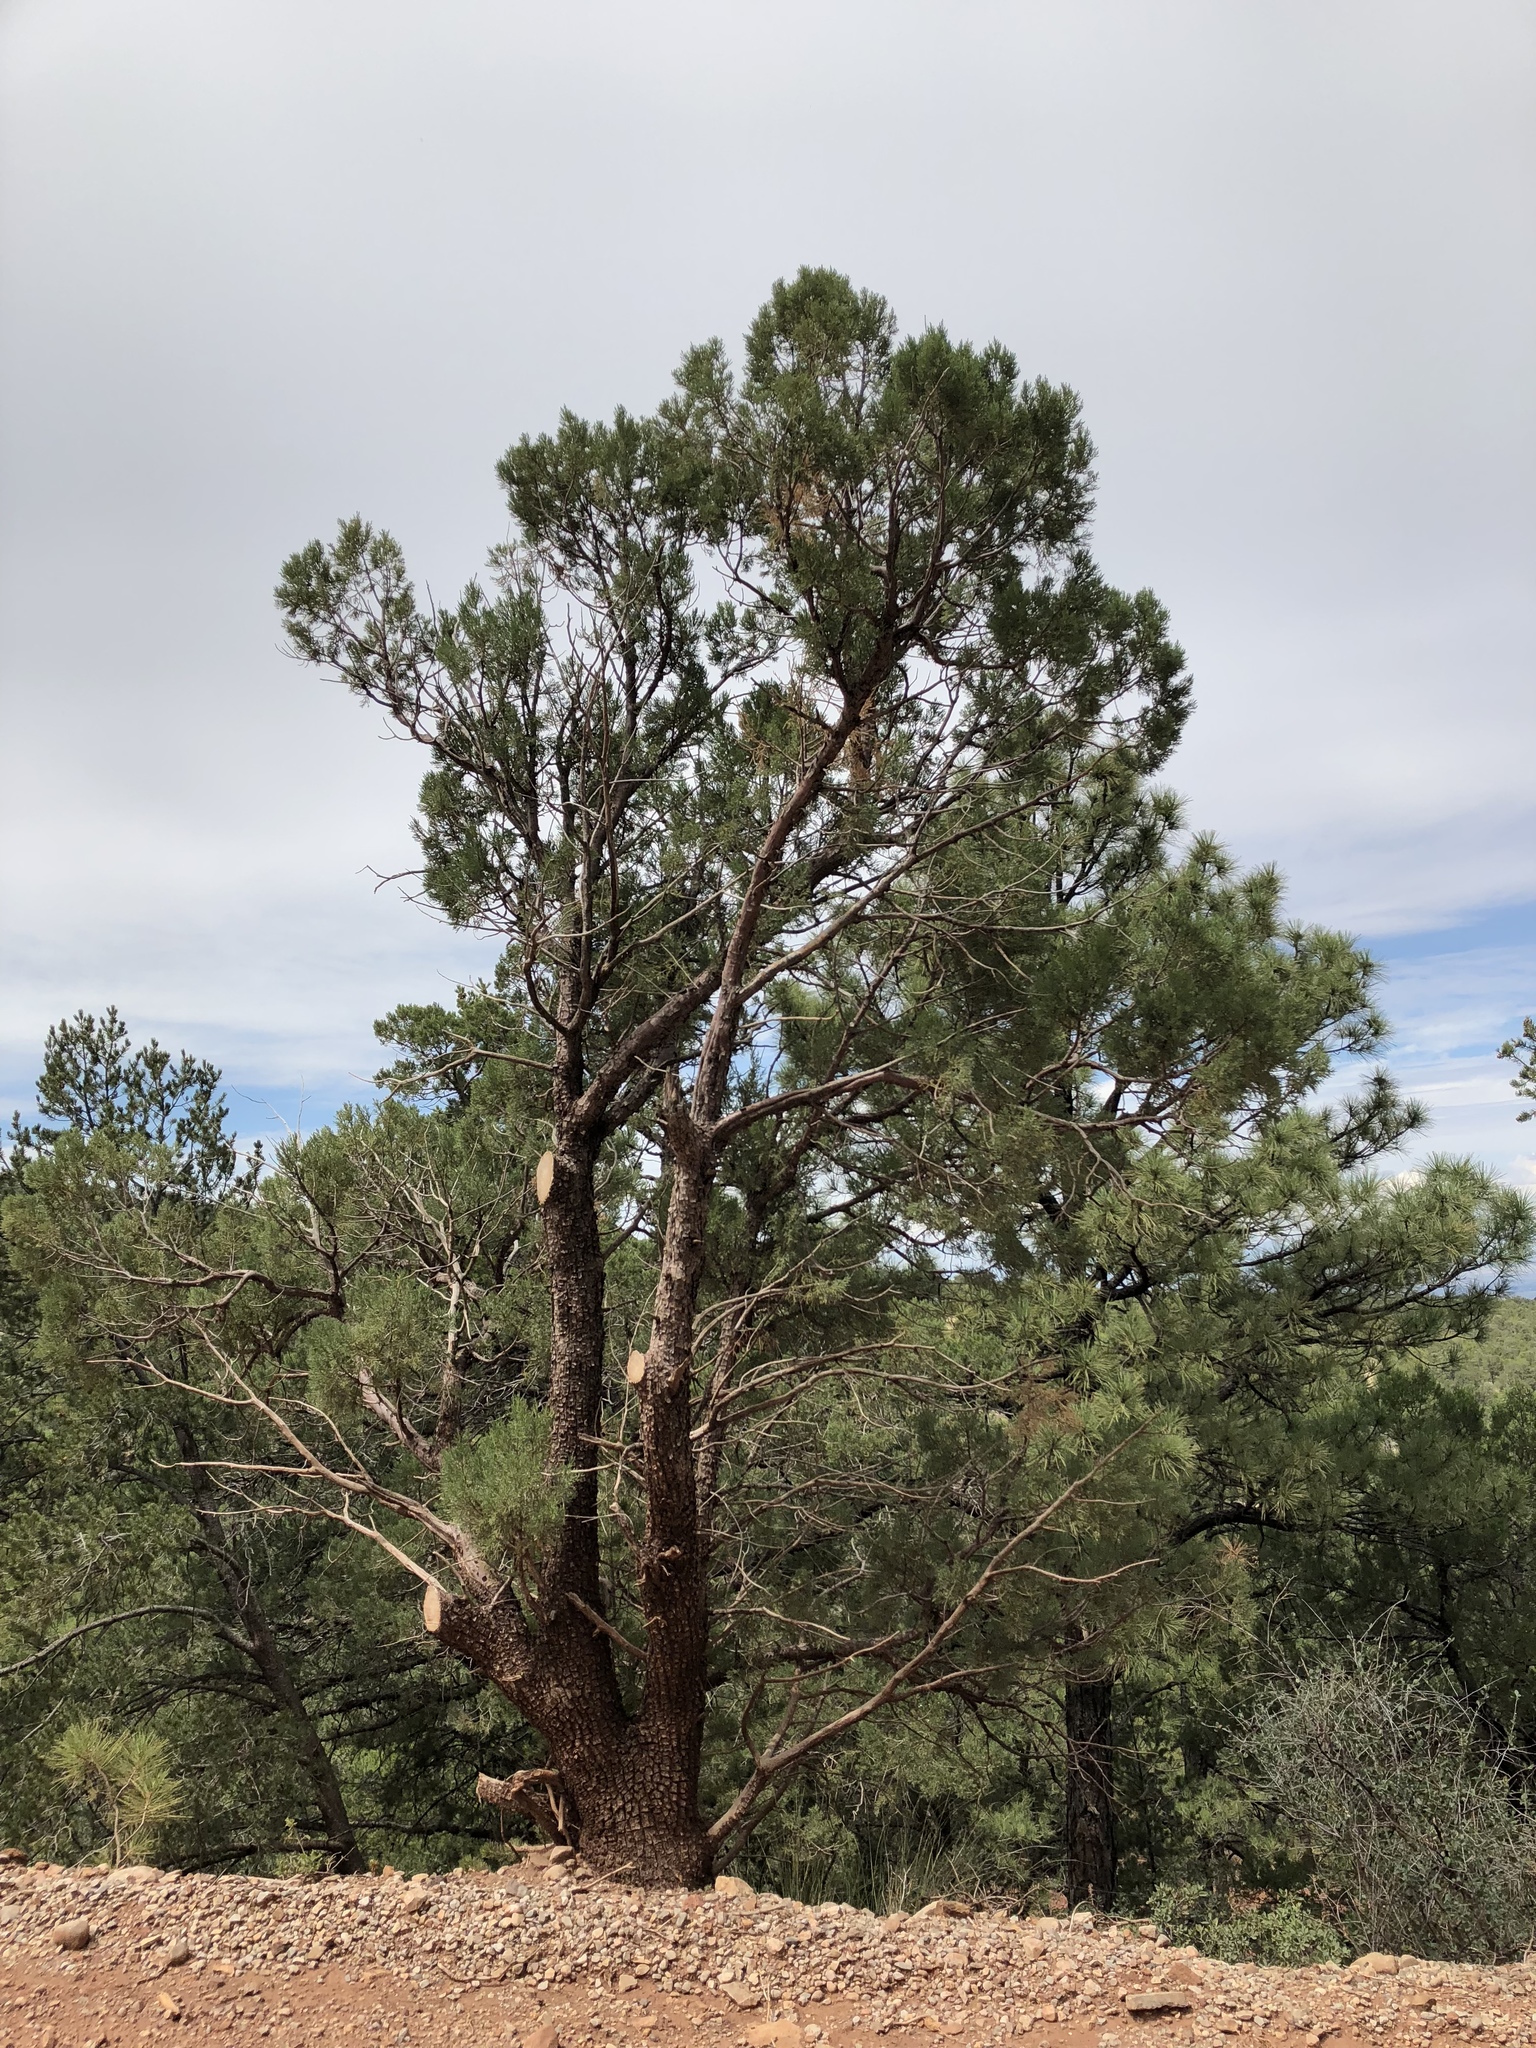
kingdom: Plantae
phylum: Tracheophyta
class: Pinopsida
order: Pinales
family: Cupressaceae
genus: Juniperus
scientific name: Juniperus deppeana
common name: Alligator juniper
